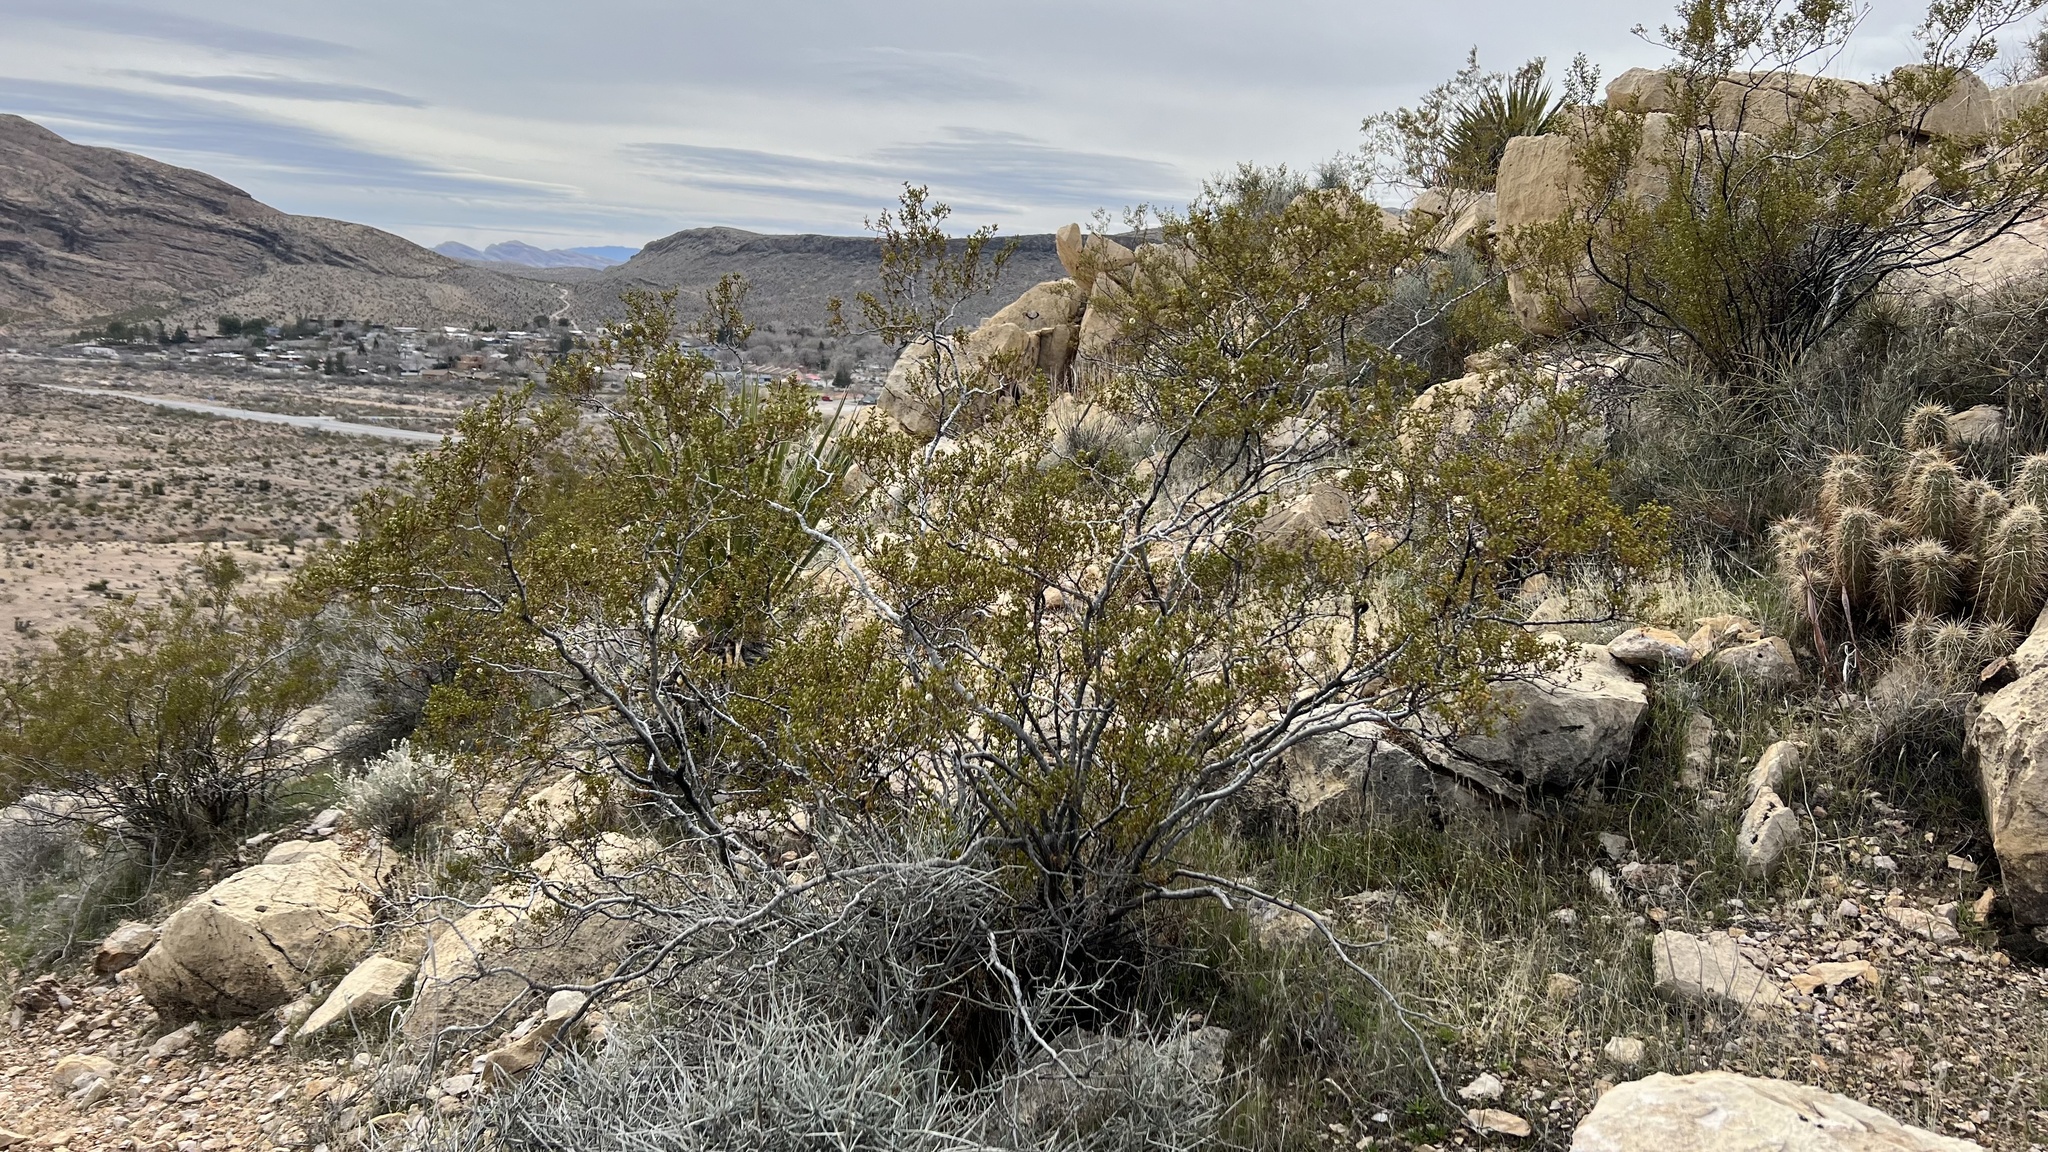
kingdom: Plantae
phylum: Tracheophyta
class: Magnoliopsida
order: Zygophyllales
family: Zygophyllaceae
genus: Larrea
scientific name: Larrea tridentata
